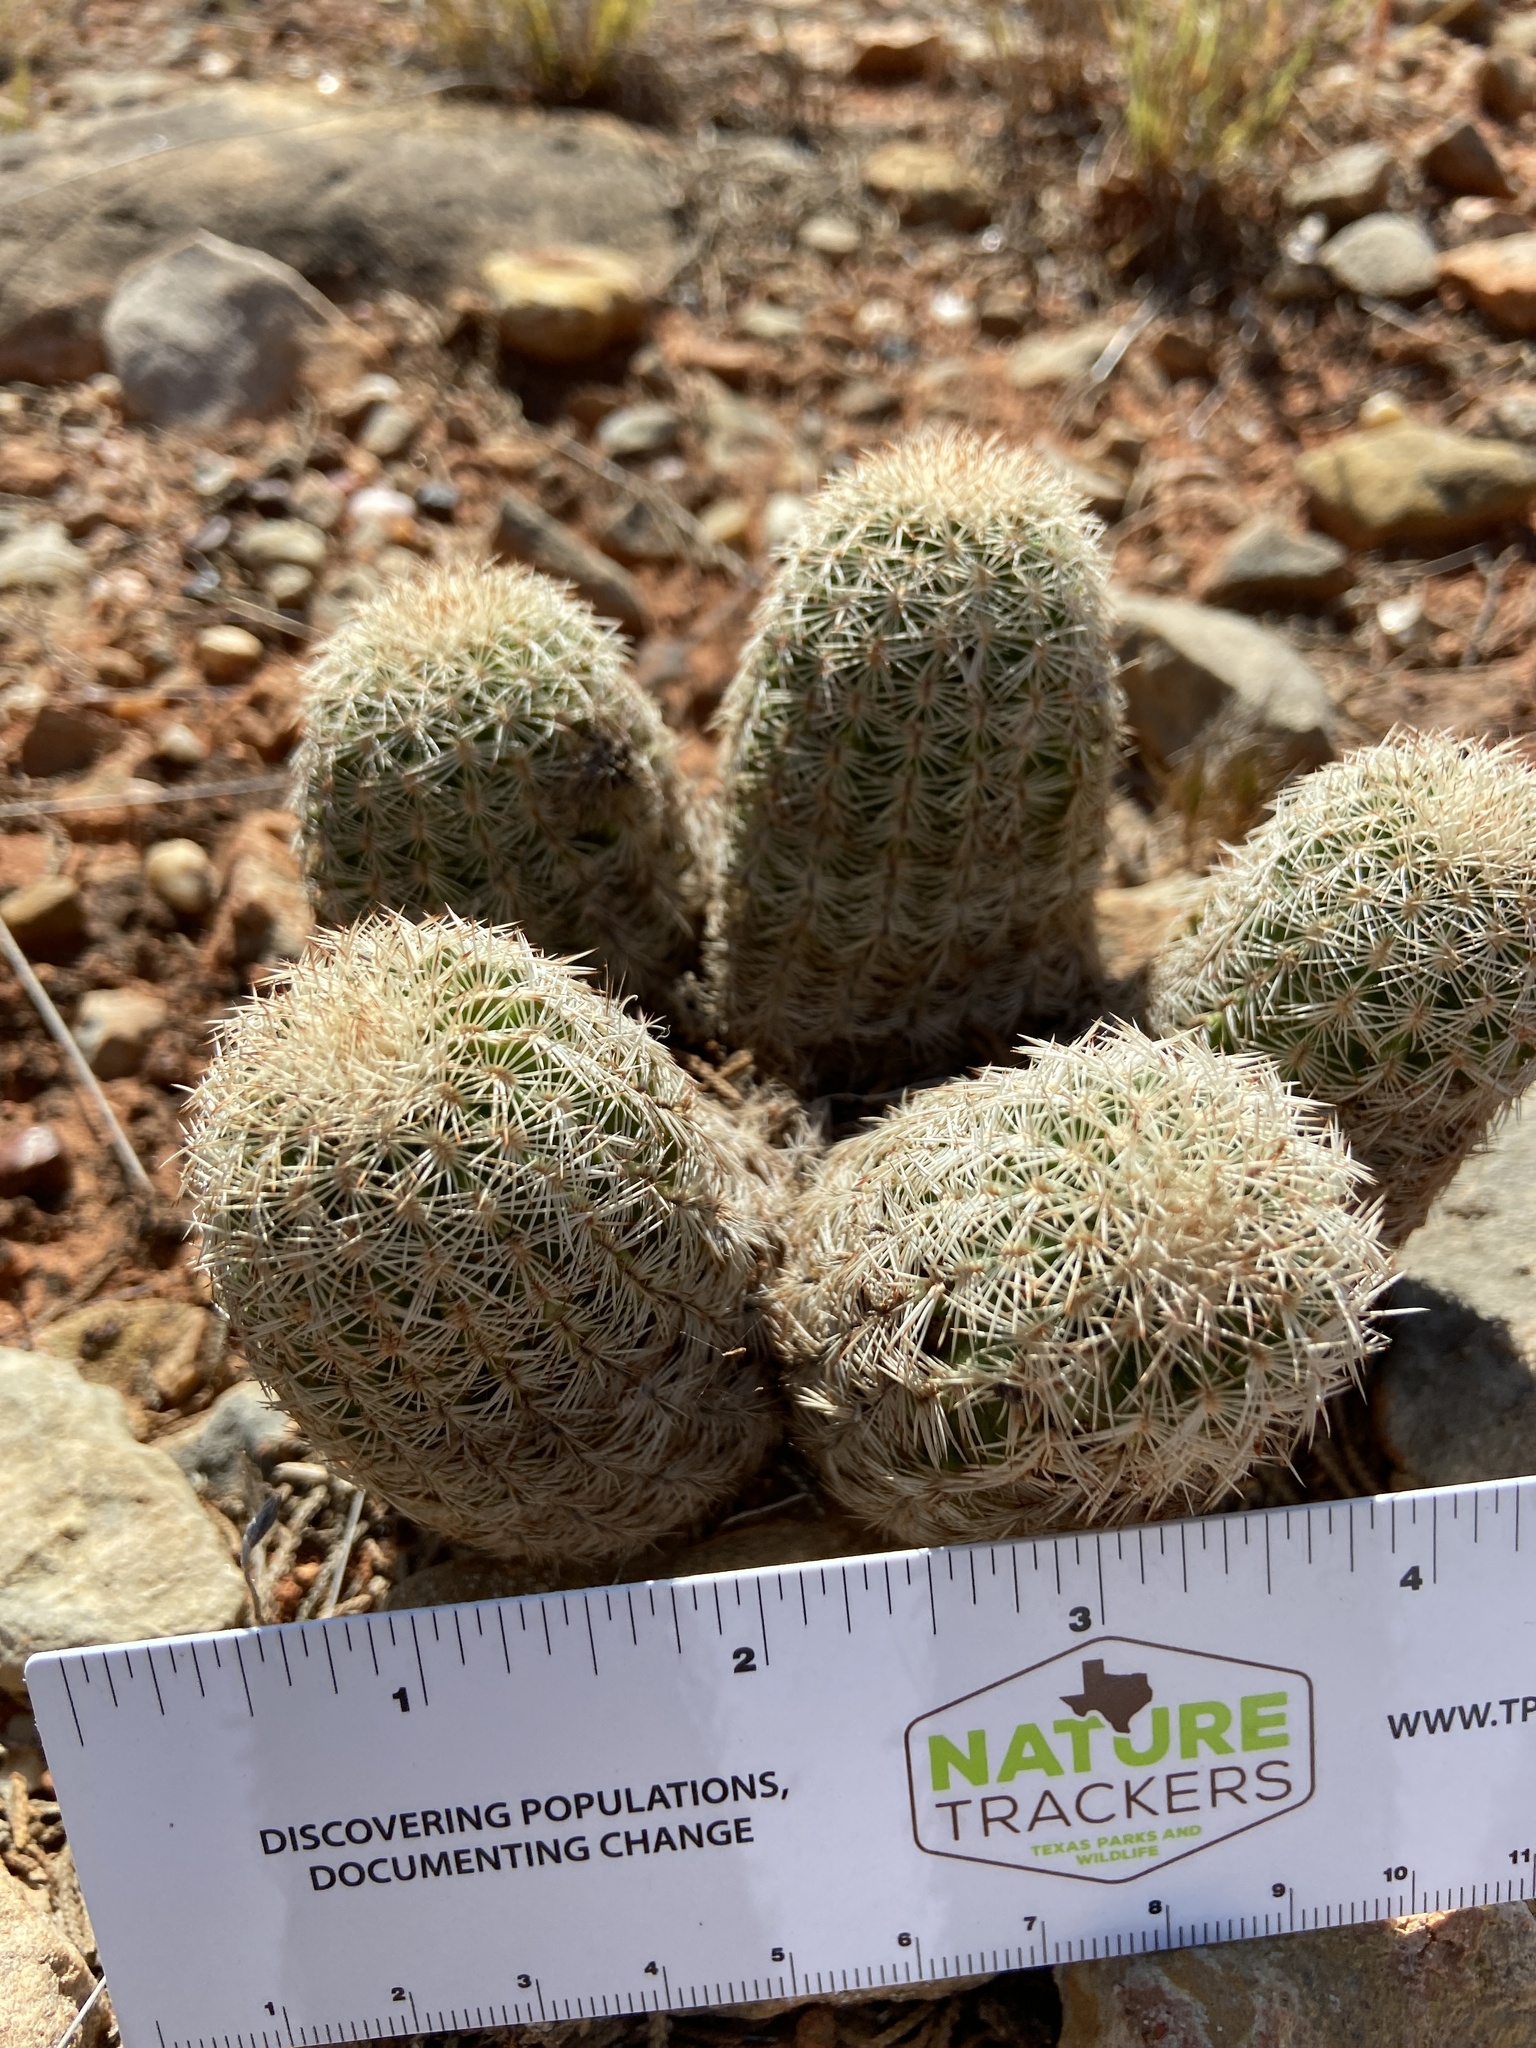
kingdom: Plantae
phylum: Tracheophyta
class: Magnoliopsida
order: Caryophyllales
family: Cactaceae
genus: Echinocereus
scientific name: Echinocereus reichenbachii
